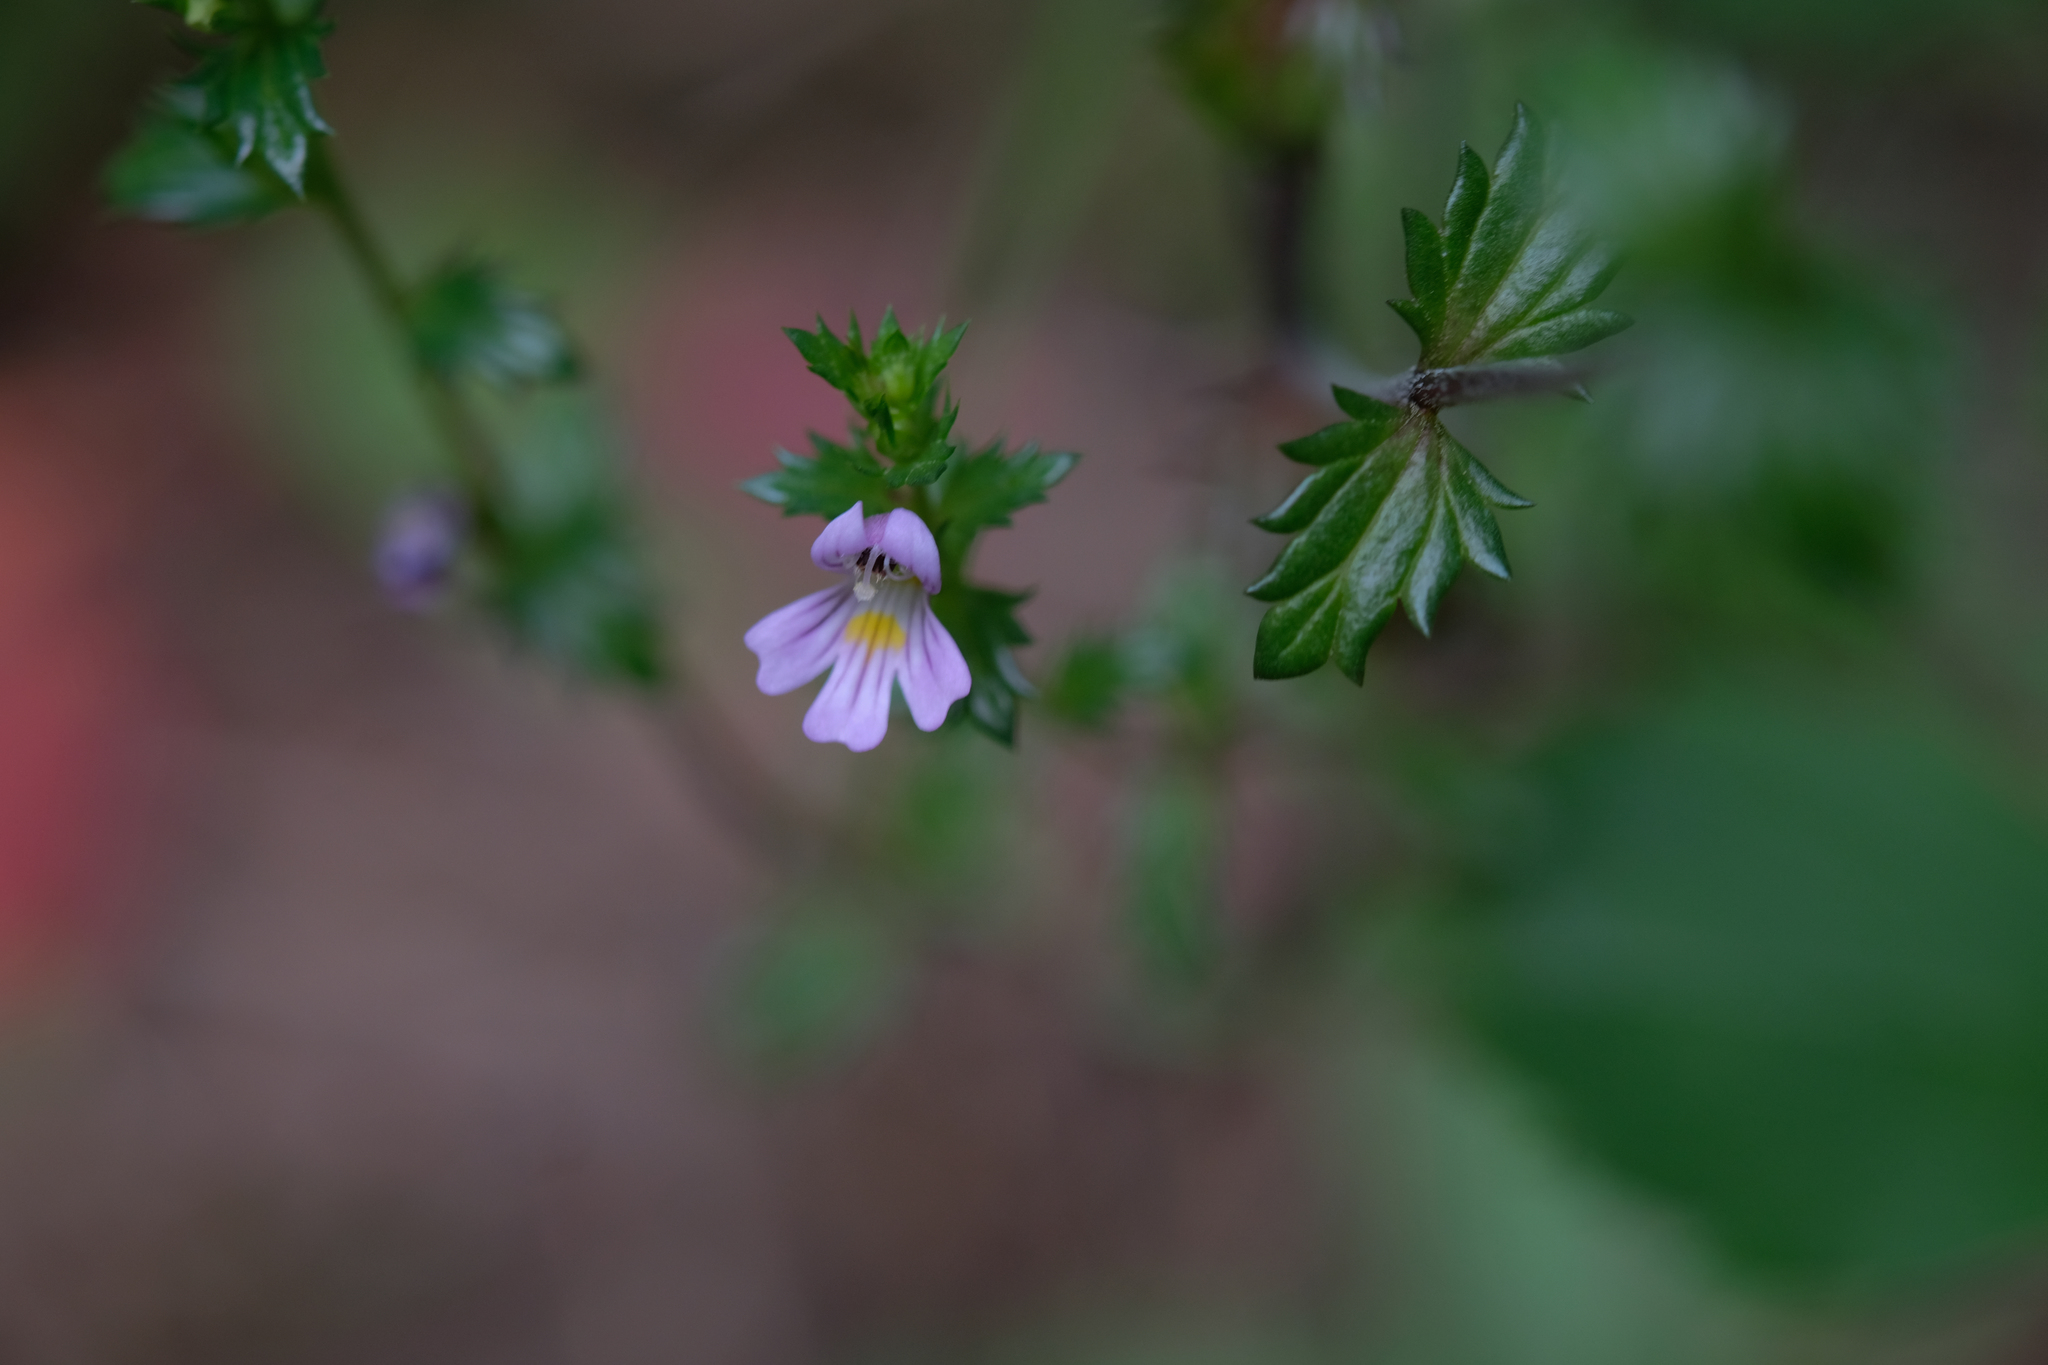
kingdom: Plantae
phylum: Tracheophyta
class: Magnoliopsida
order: Lamiales
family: Orobanchaceae
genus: Euphrasia
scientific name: Euphrasia nemorosa
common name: Common eyebright
